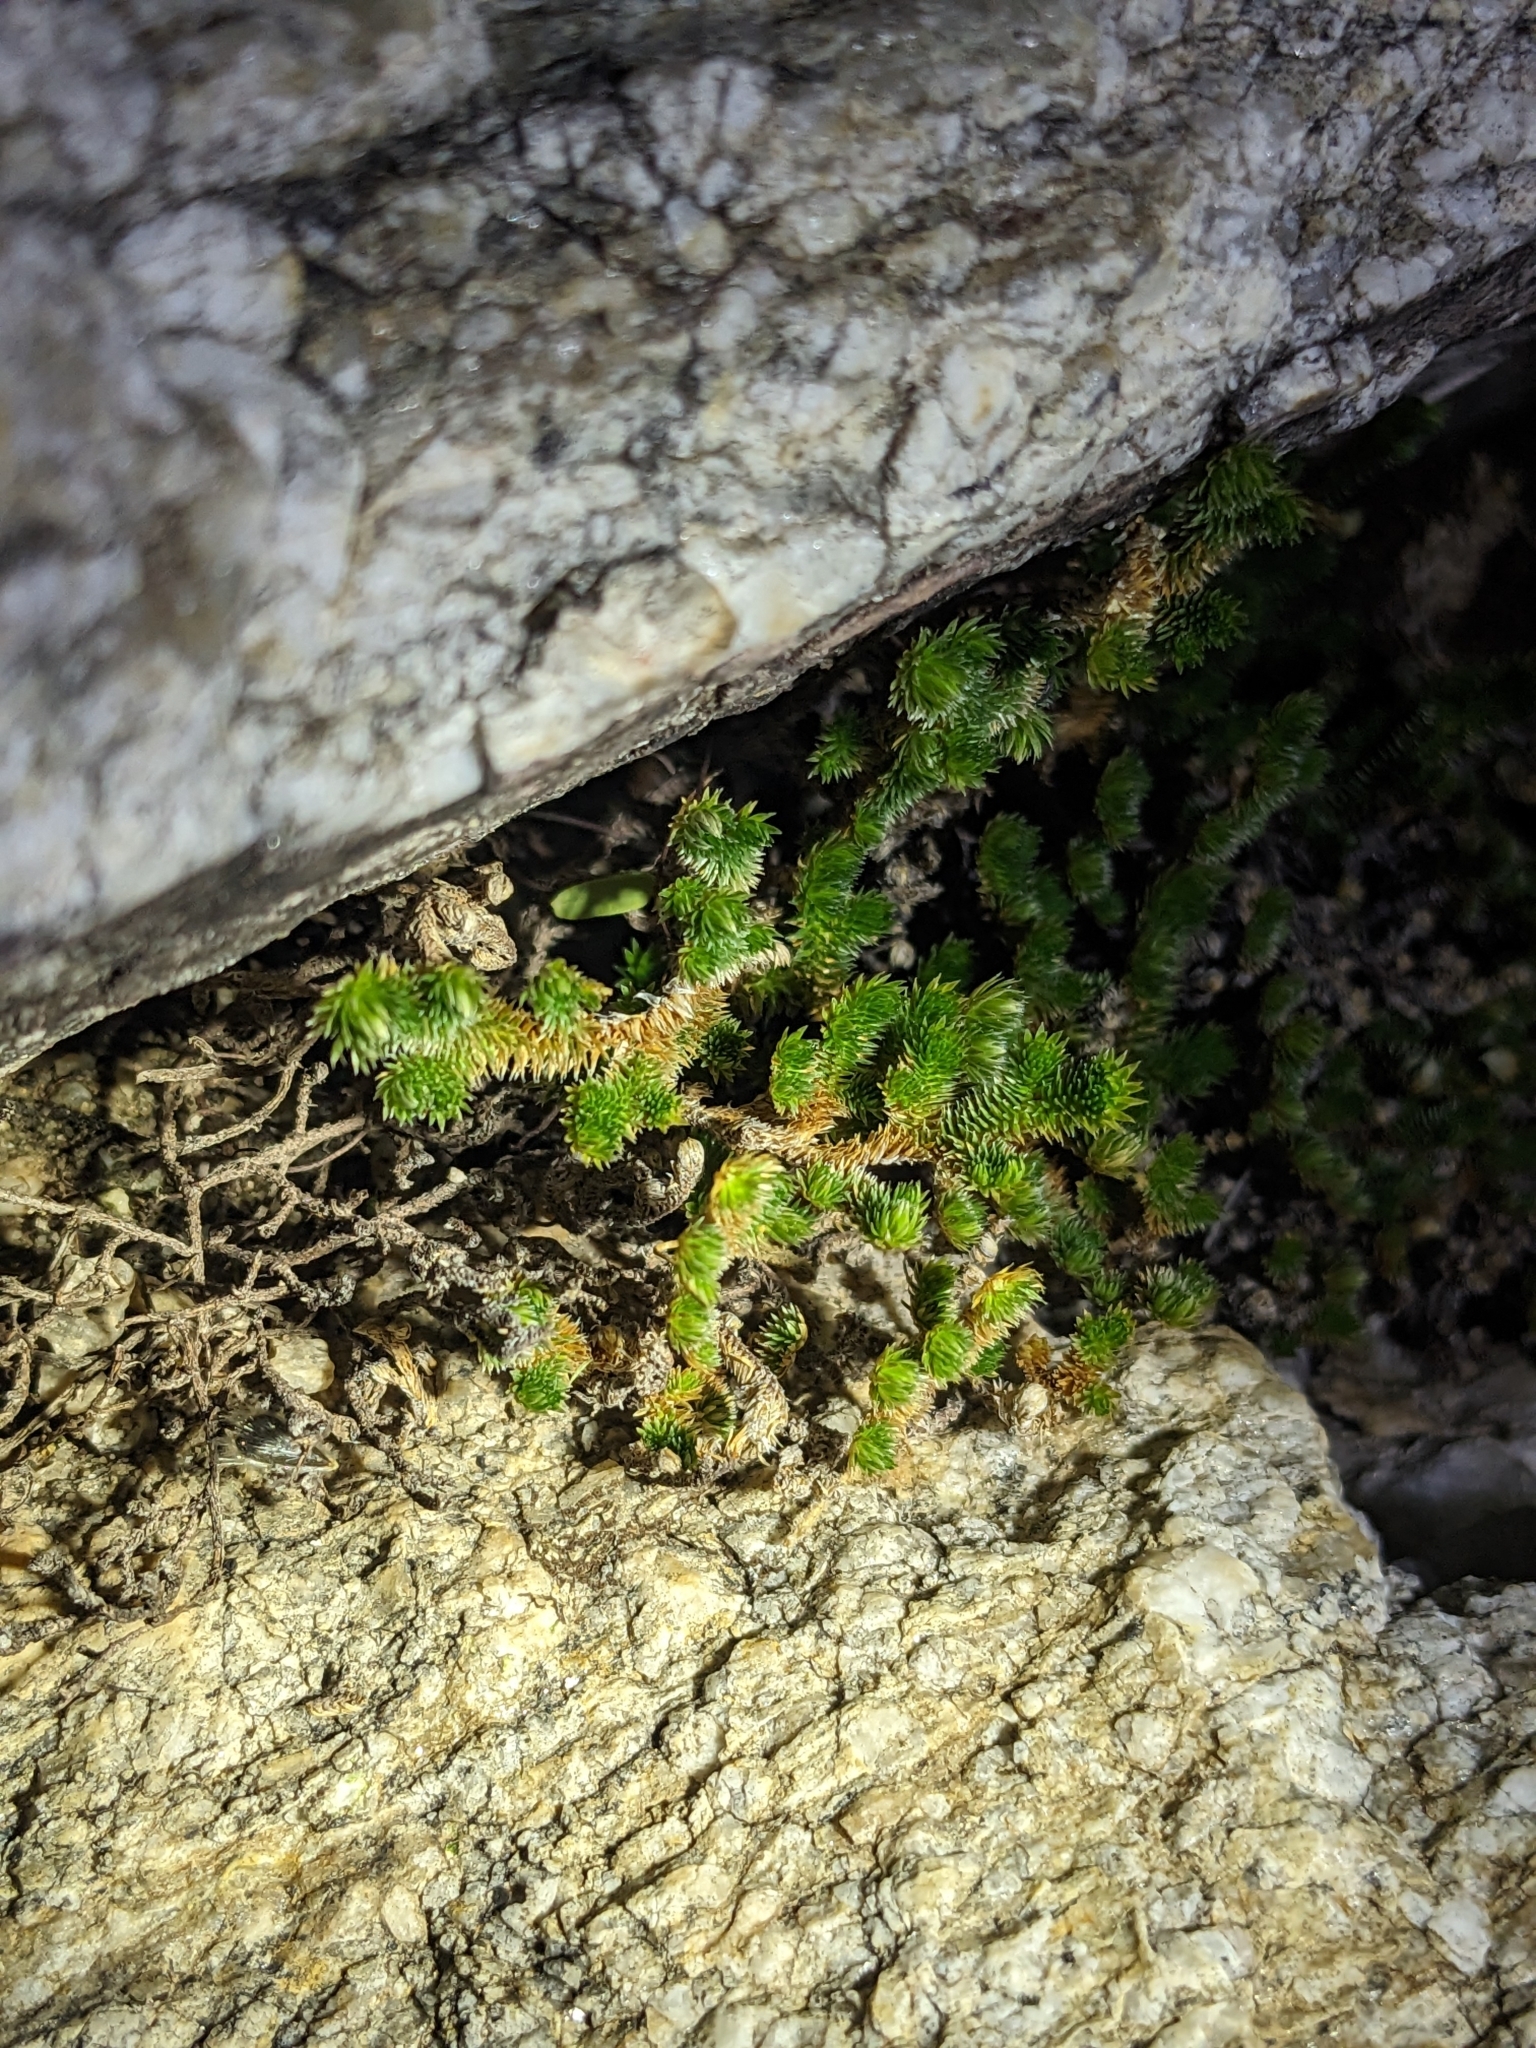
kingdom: Plantae
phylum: Tracheophyta
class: Lycopodiopsida
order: Selaginellales
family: Selaginellaceae
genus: Selaginella
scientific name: Selaginella arizonica
